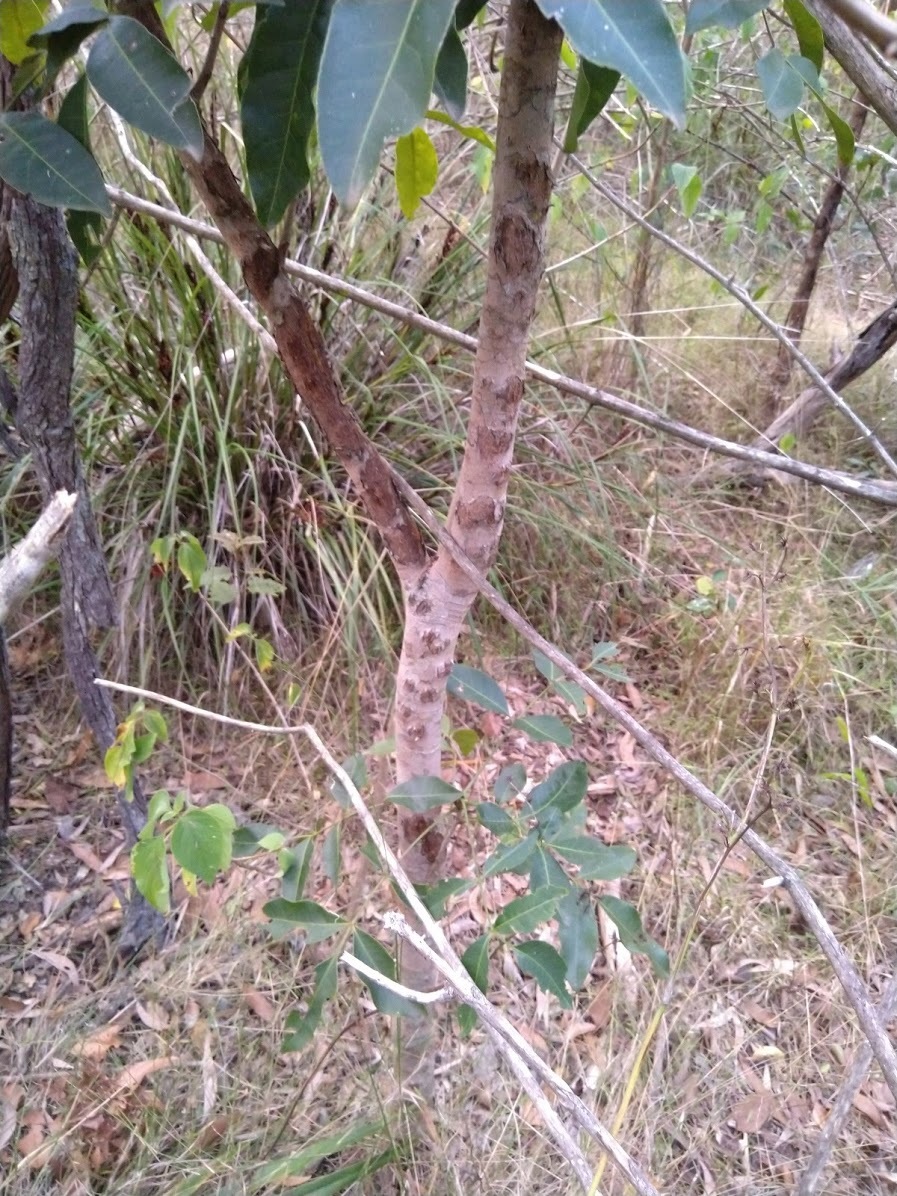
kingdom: Plantae
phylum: Tracheophyta
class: Magnoliopsida
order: Sapindales
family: Rutaceae
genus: Flindersia
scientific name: Flindersia australis
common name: Australian-teak
